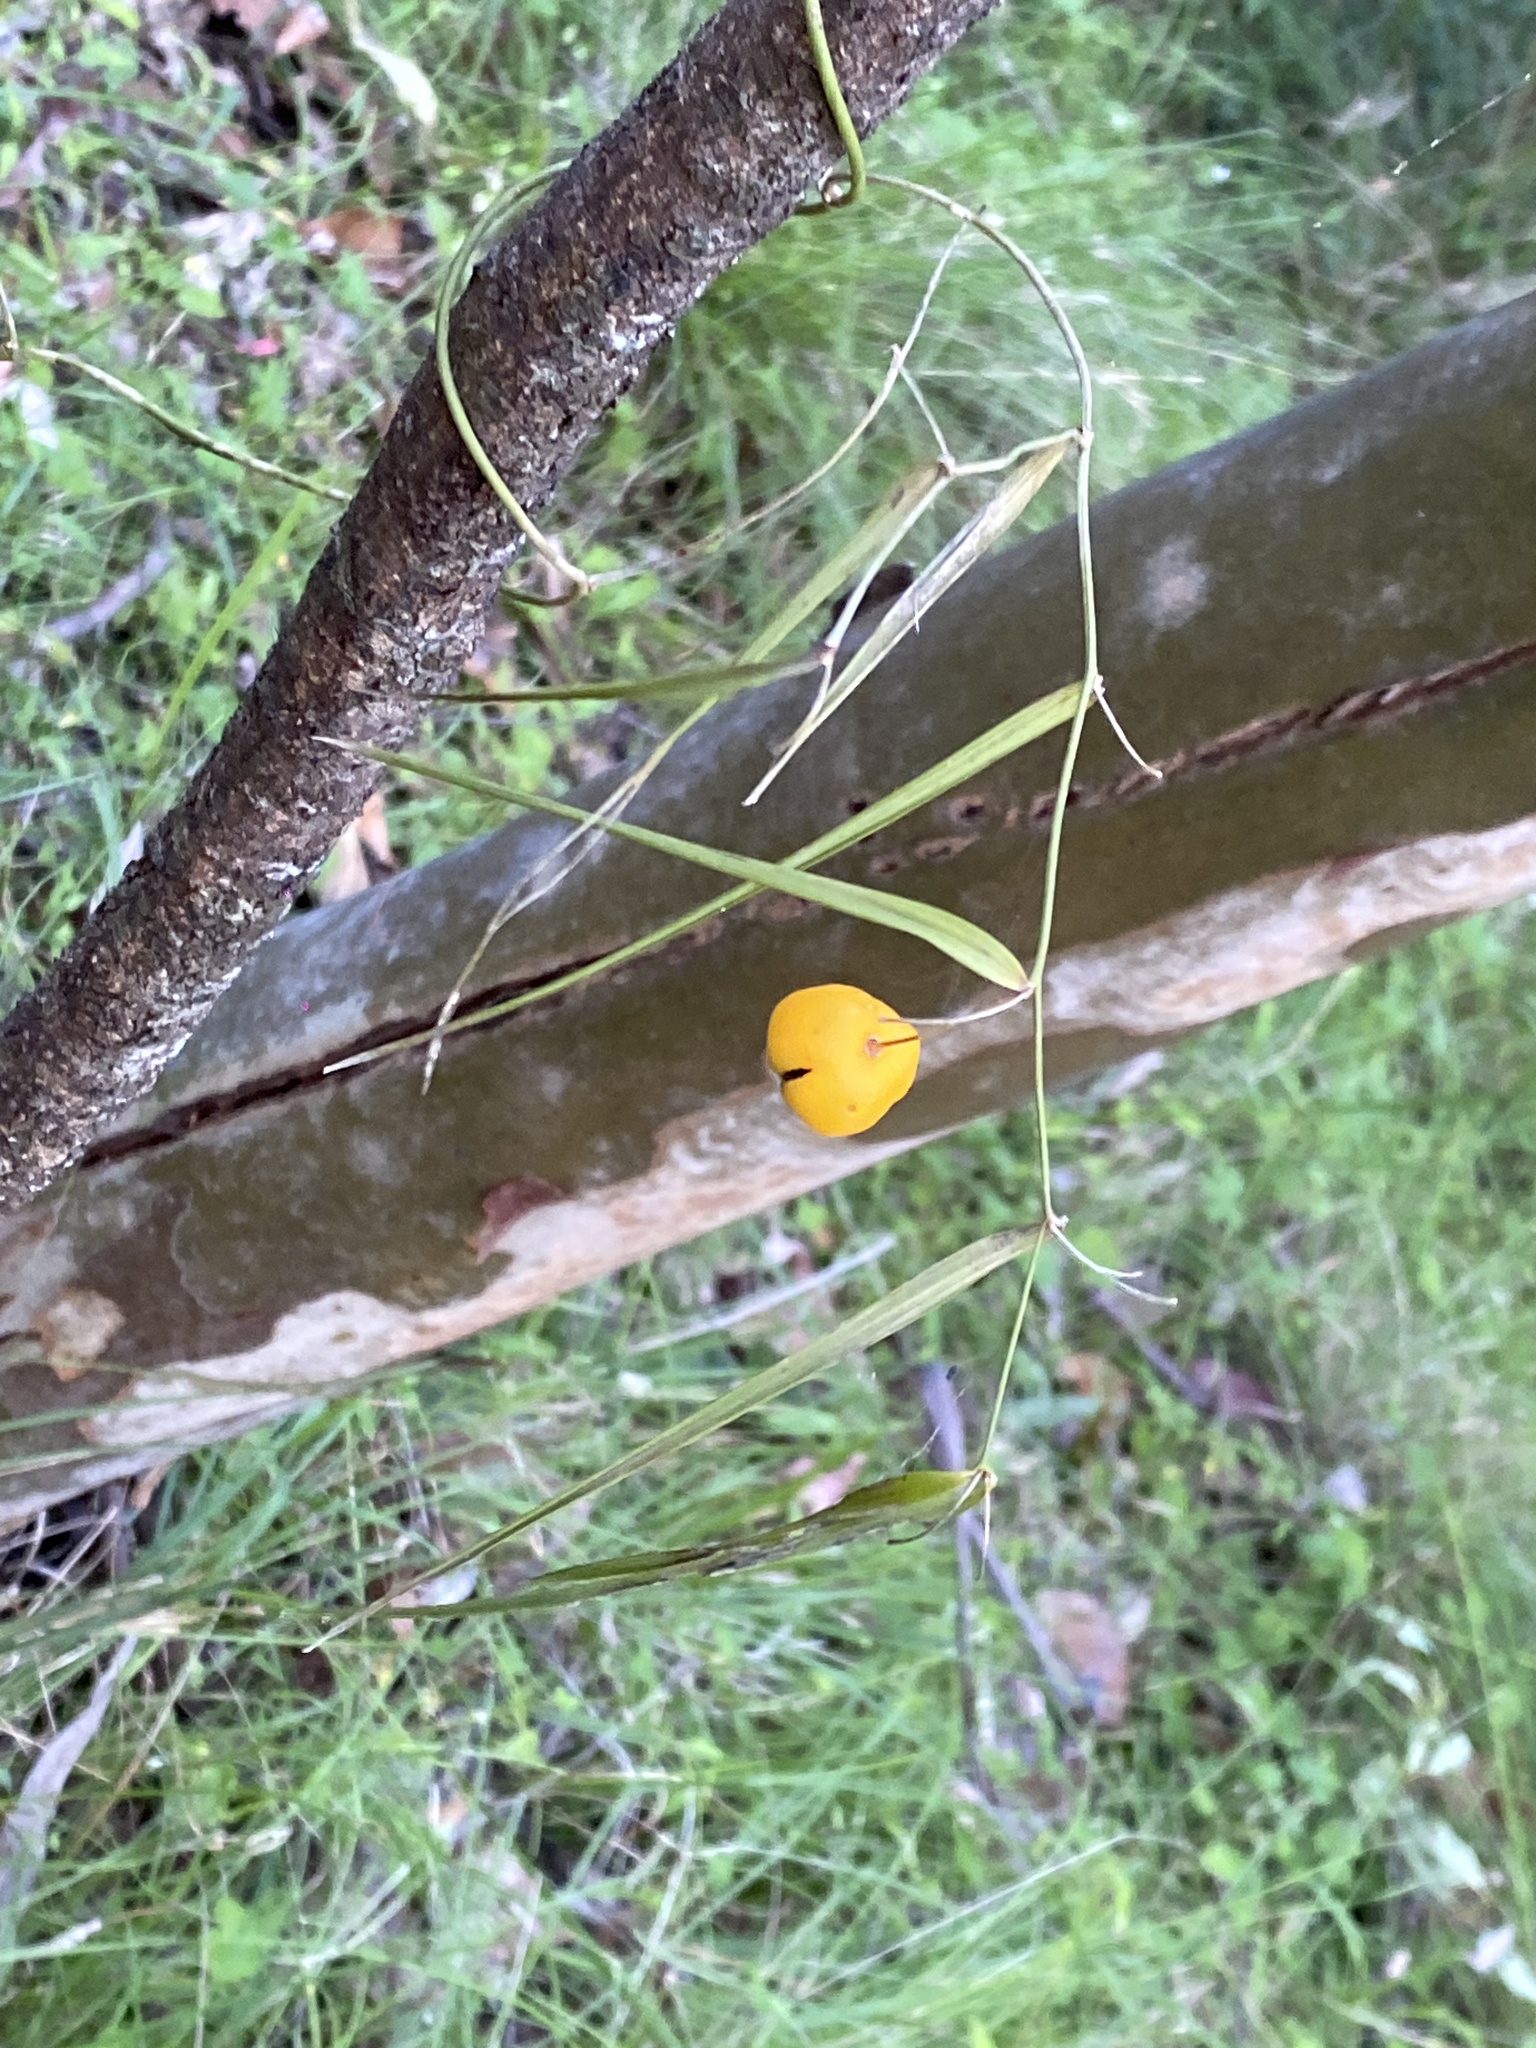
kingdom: Plantae
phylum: Tracheophyta
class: Liliopsida
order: Asparagales
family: Asparagaceae
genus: Eustrephus
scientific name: Eustrephus latifolius
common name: Orangevine
